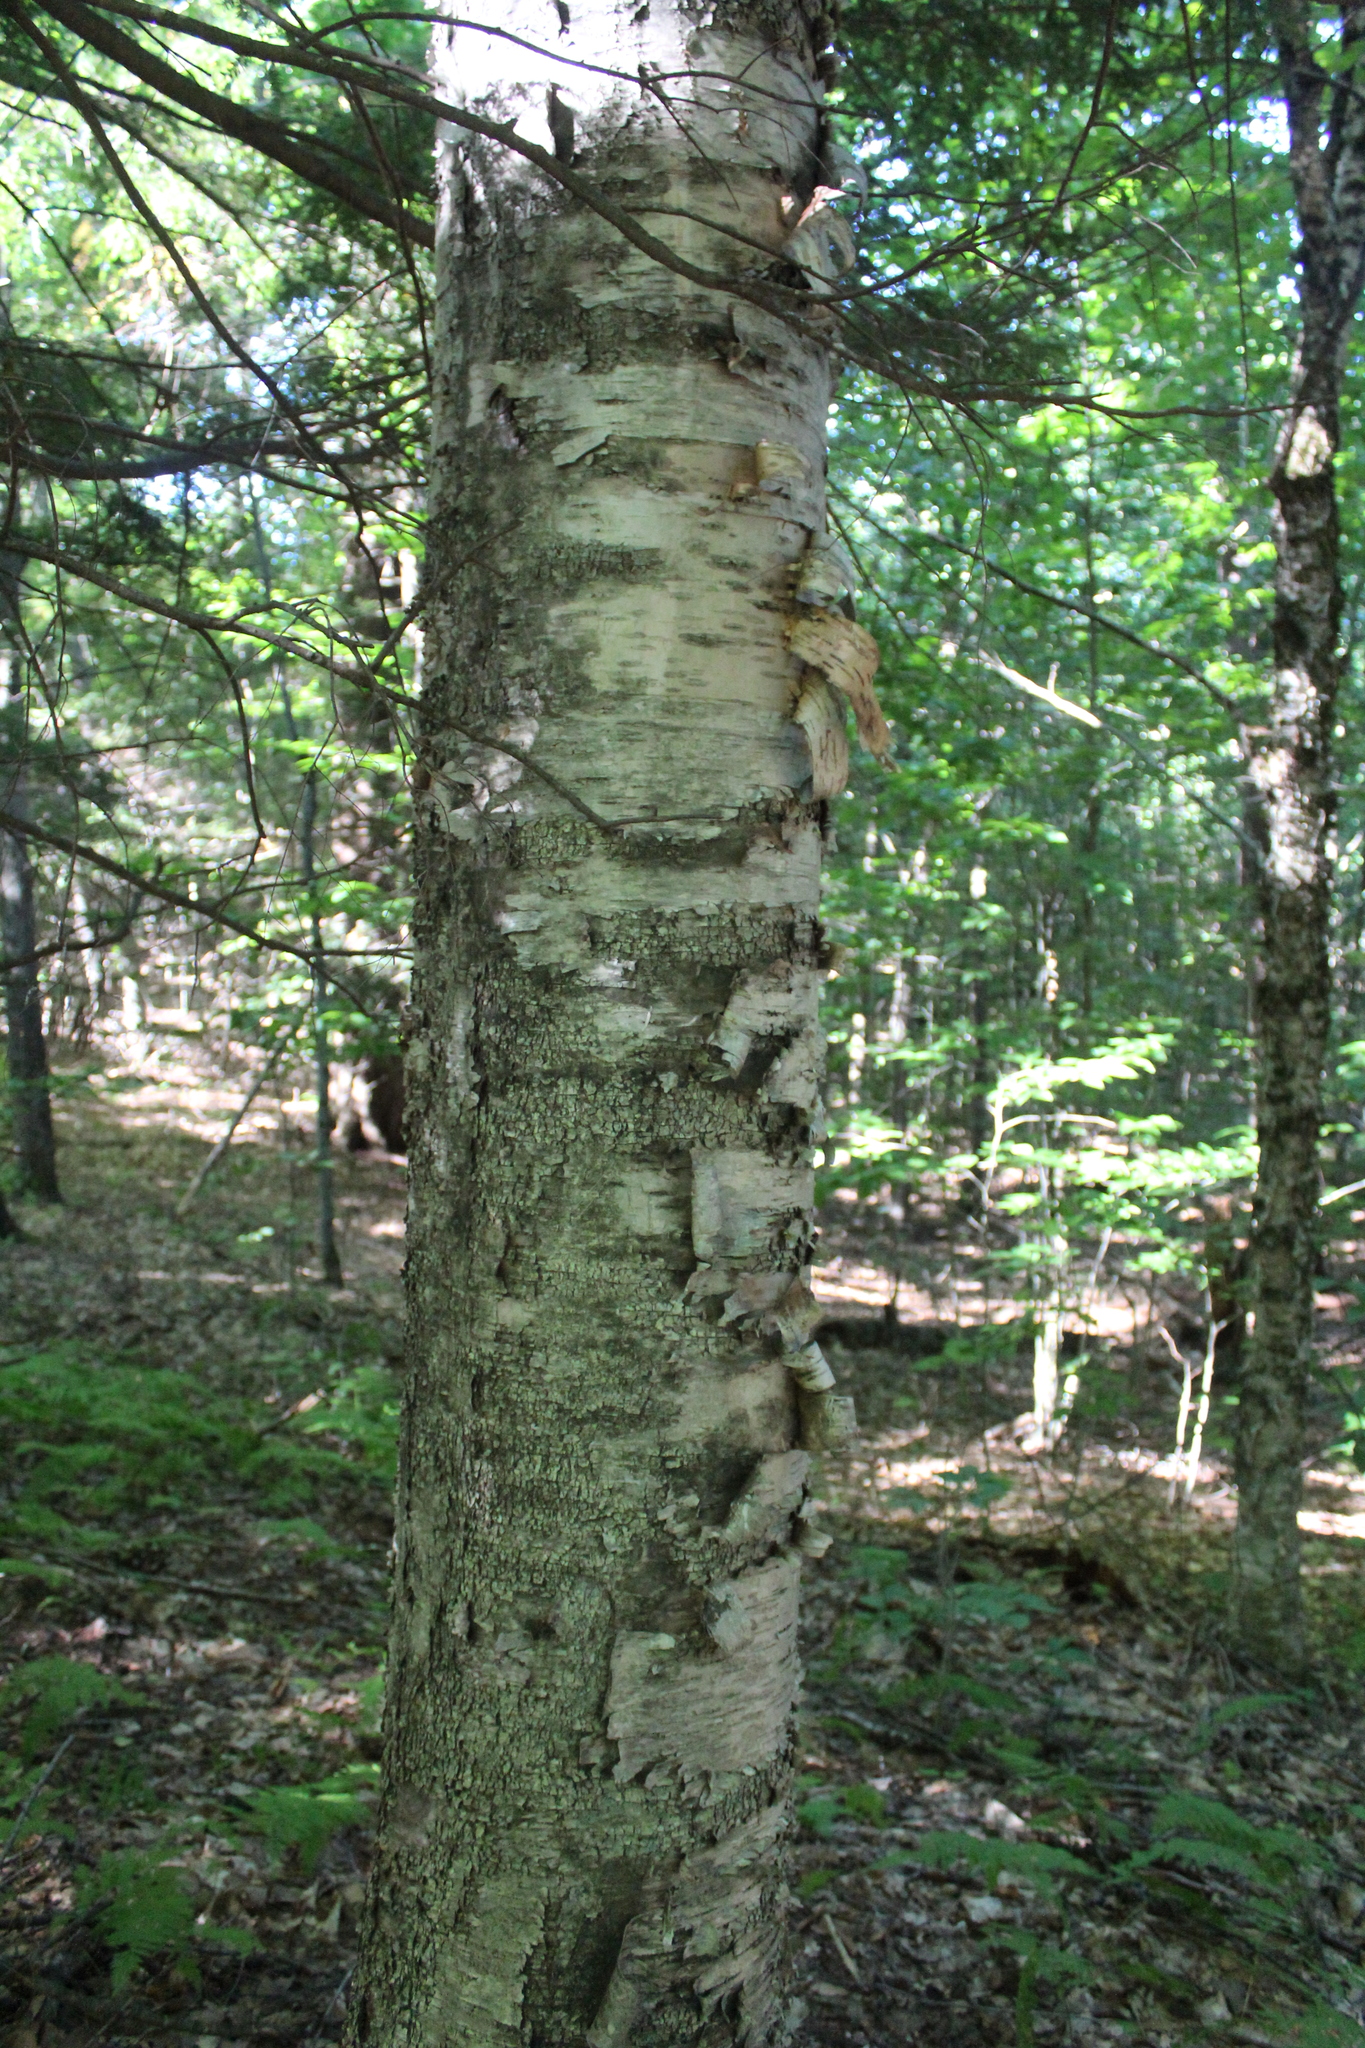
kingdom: Plantae
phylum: Tracheophyta
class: Magnoliopsida
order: Fagales
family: Betulaceae
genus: Betula
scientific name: Betula papyrifera
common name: Paper birch
